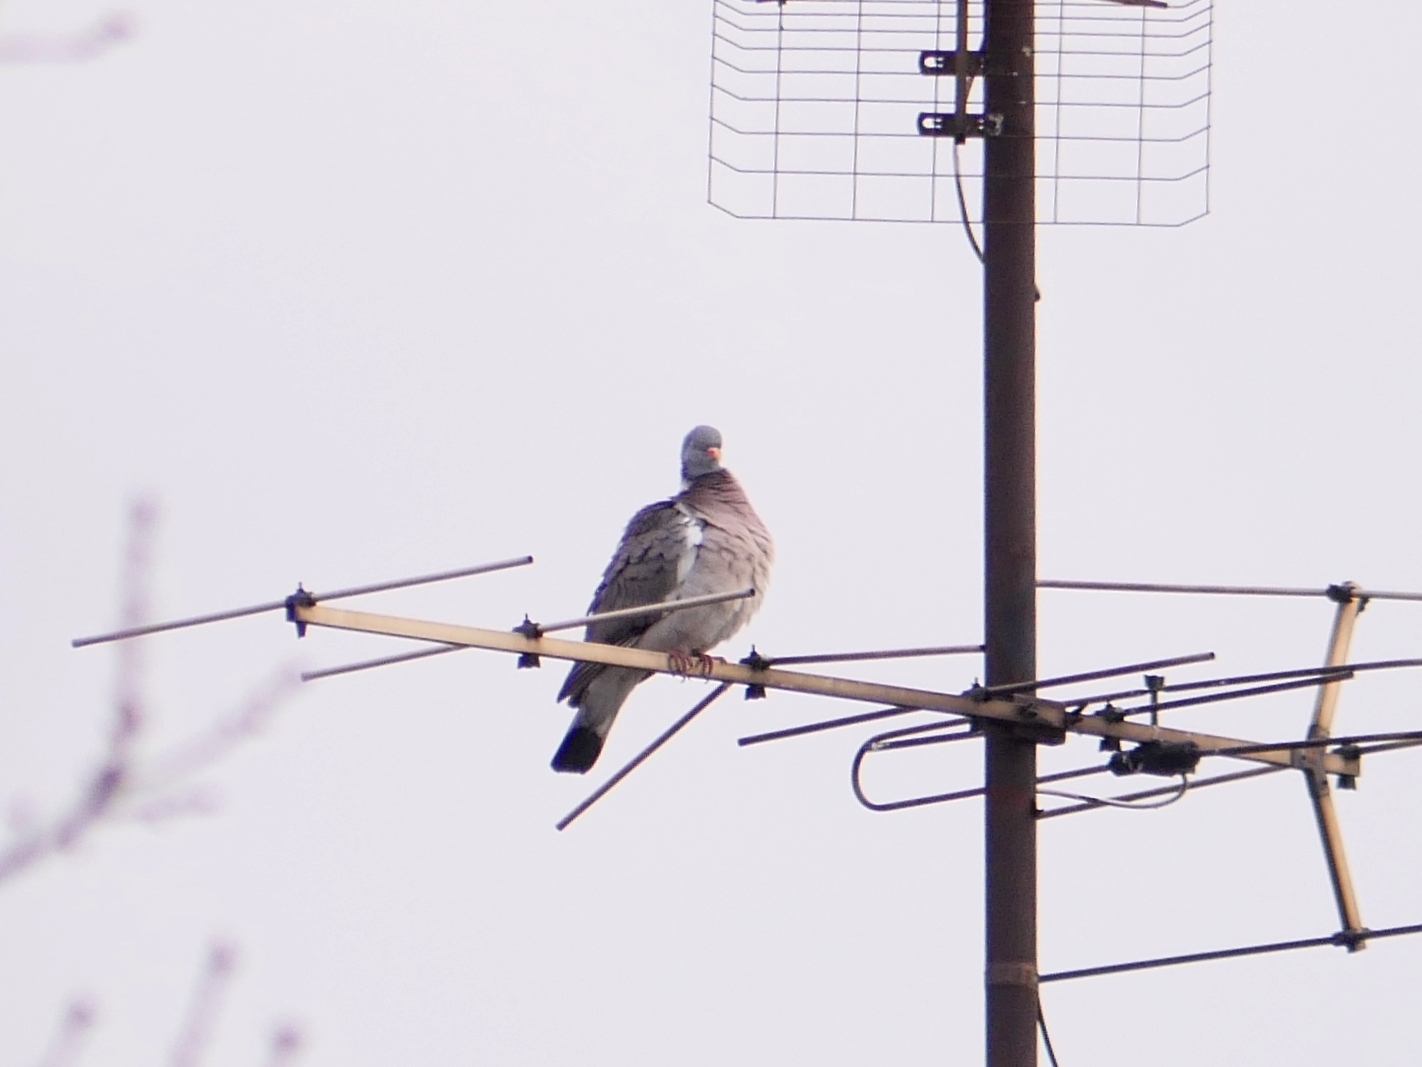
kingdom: Animalia
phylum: Chordata
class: Aves
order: Columbiformes
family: Columbidae
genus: Columba
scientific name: Columba palumbus
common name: Common wood pigeon
